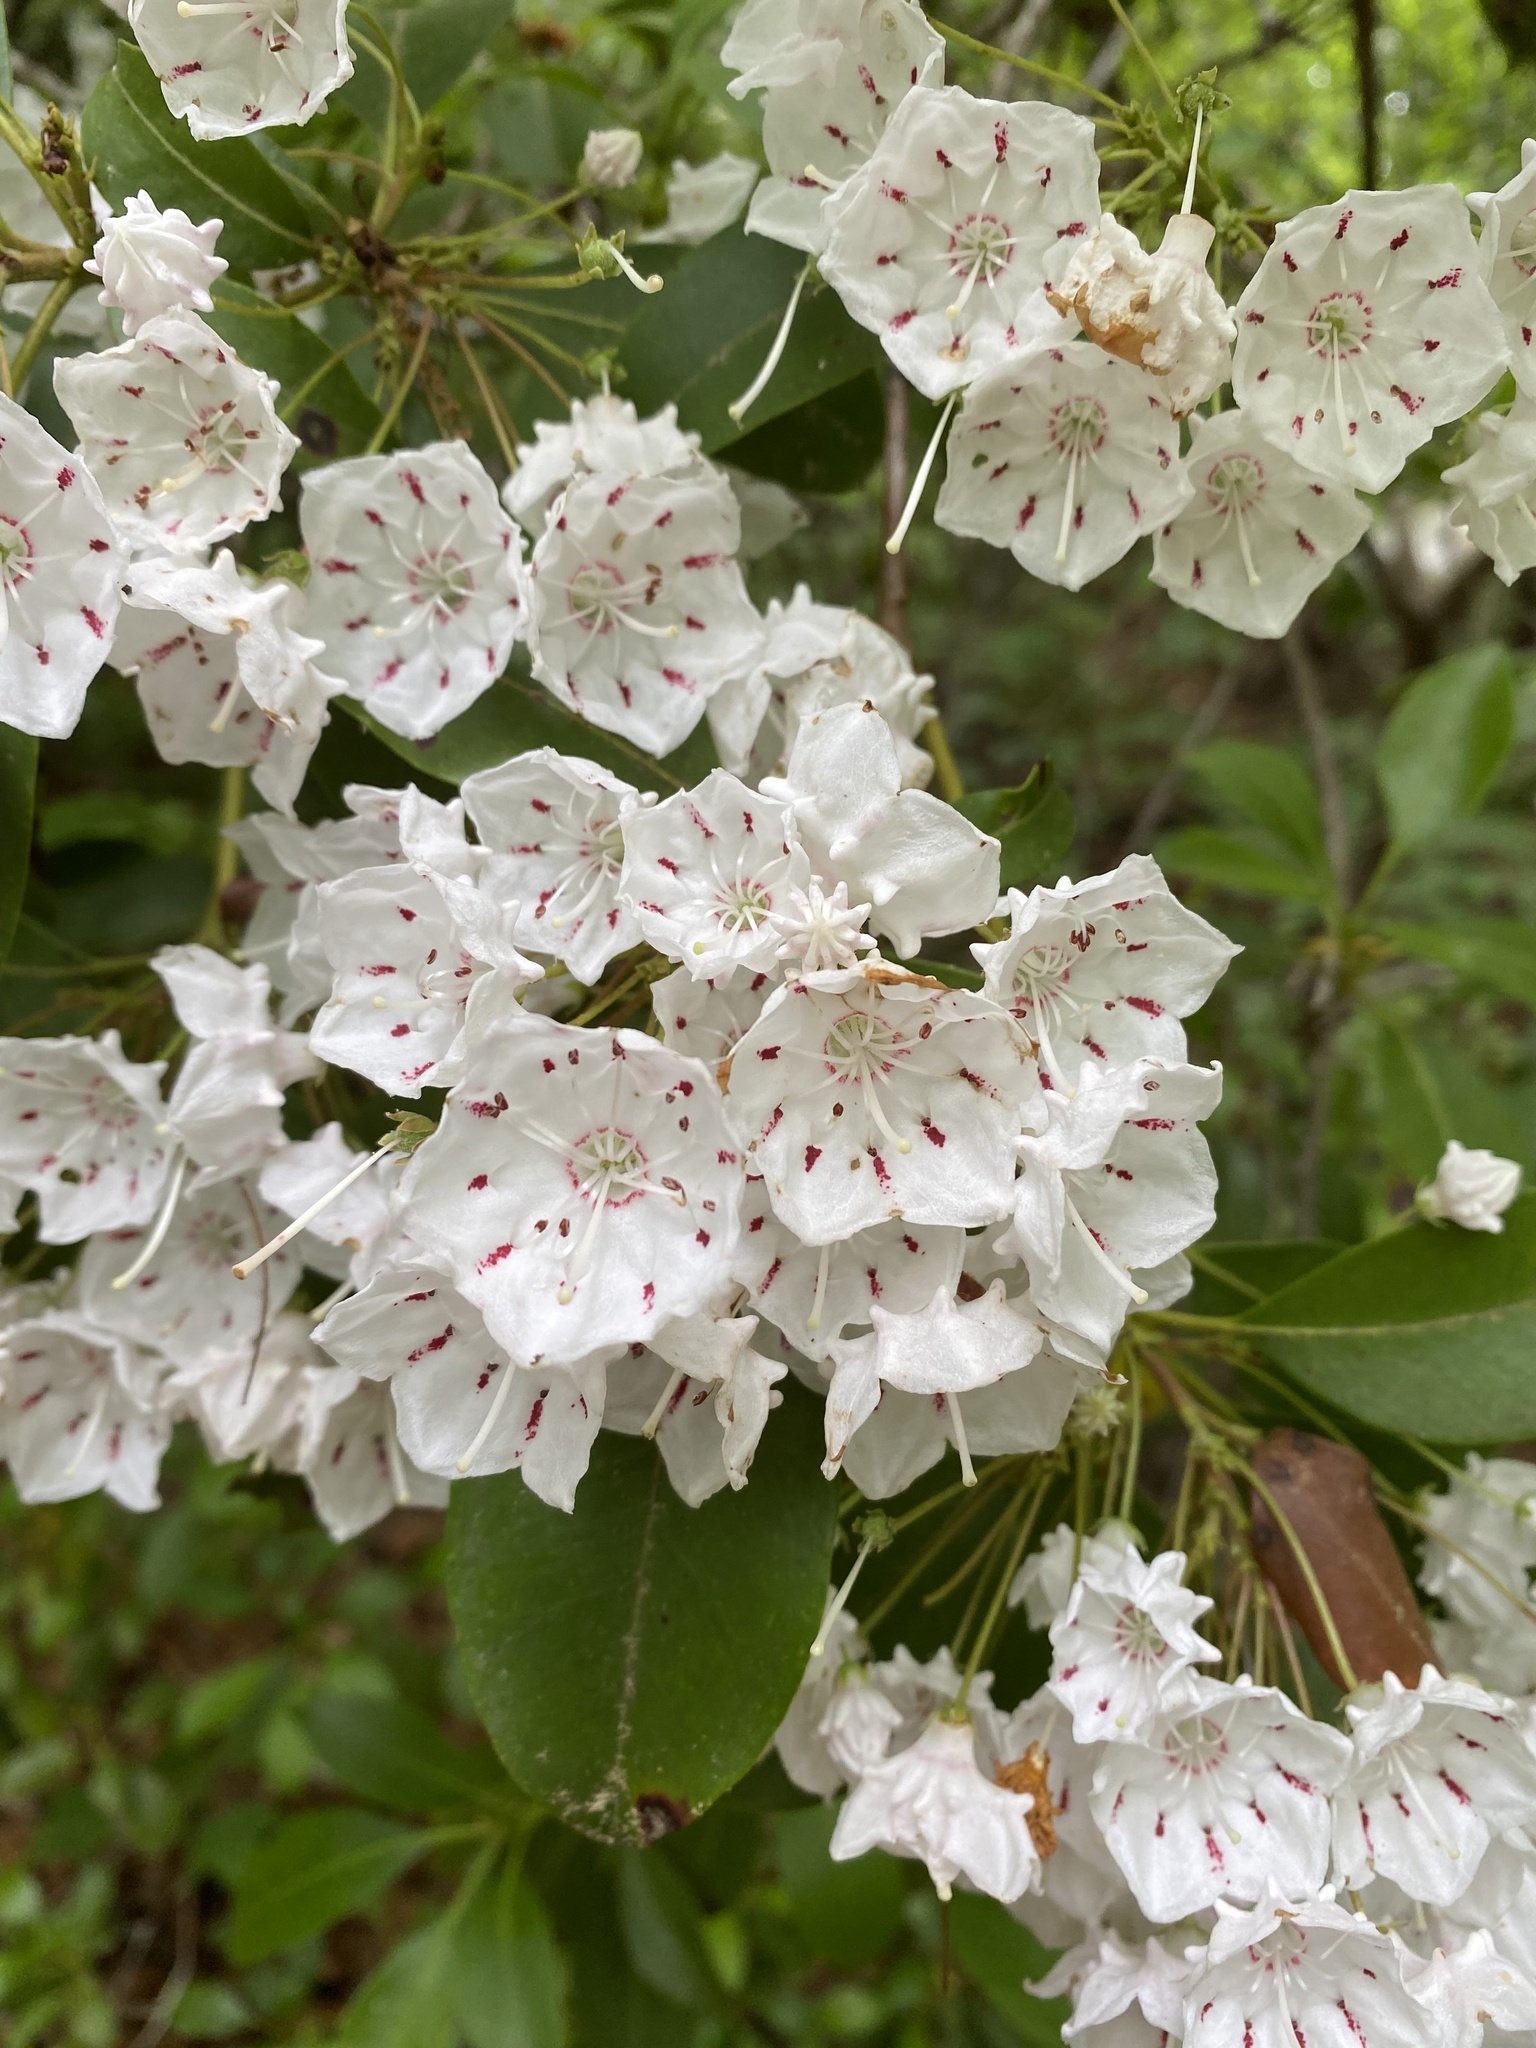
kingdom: Plantae
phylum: Tracheophyta
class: Magnoliopsida
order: Ericales
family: Ericaceae
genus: Kalmia
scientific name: Kalmia latifolia
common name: Mountain-laurel
